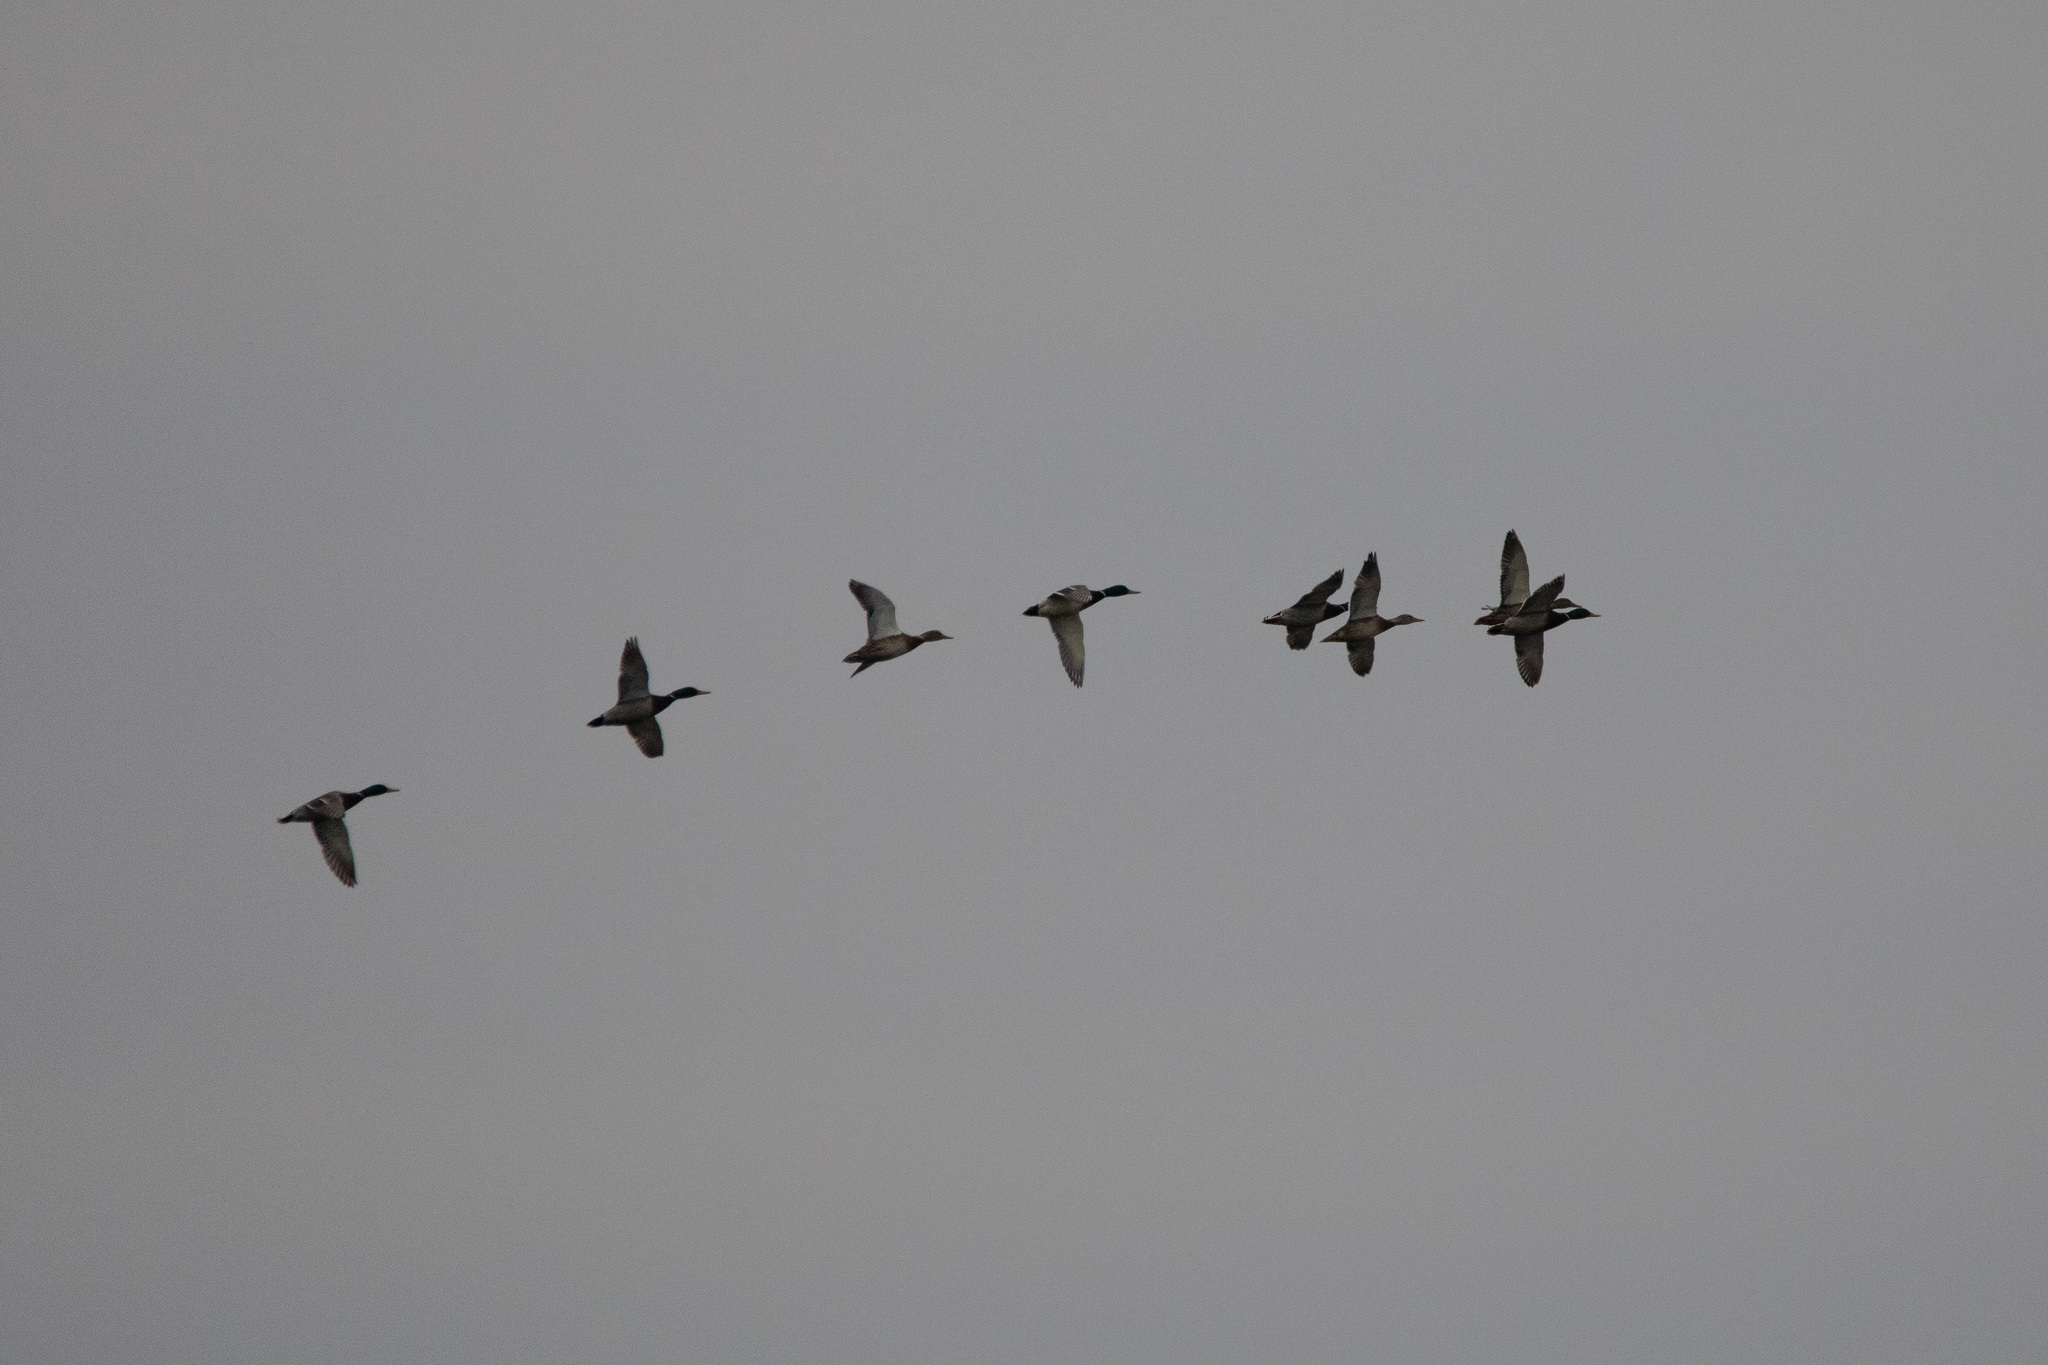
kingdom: Animalia
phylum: Chordata
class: Aves
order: Anseriformes
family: Anatidae
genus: Anas
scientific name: Anas platyrhynchos
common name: Mallard
